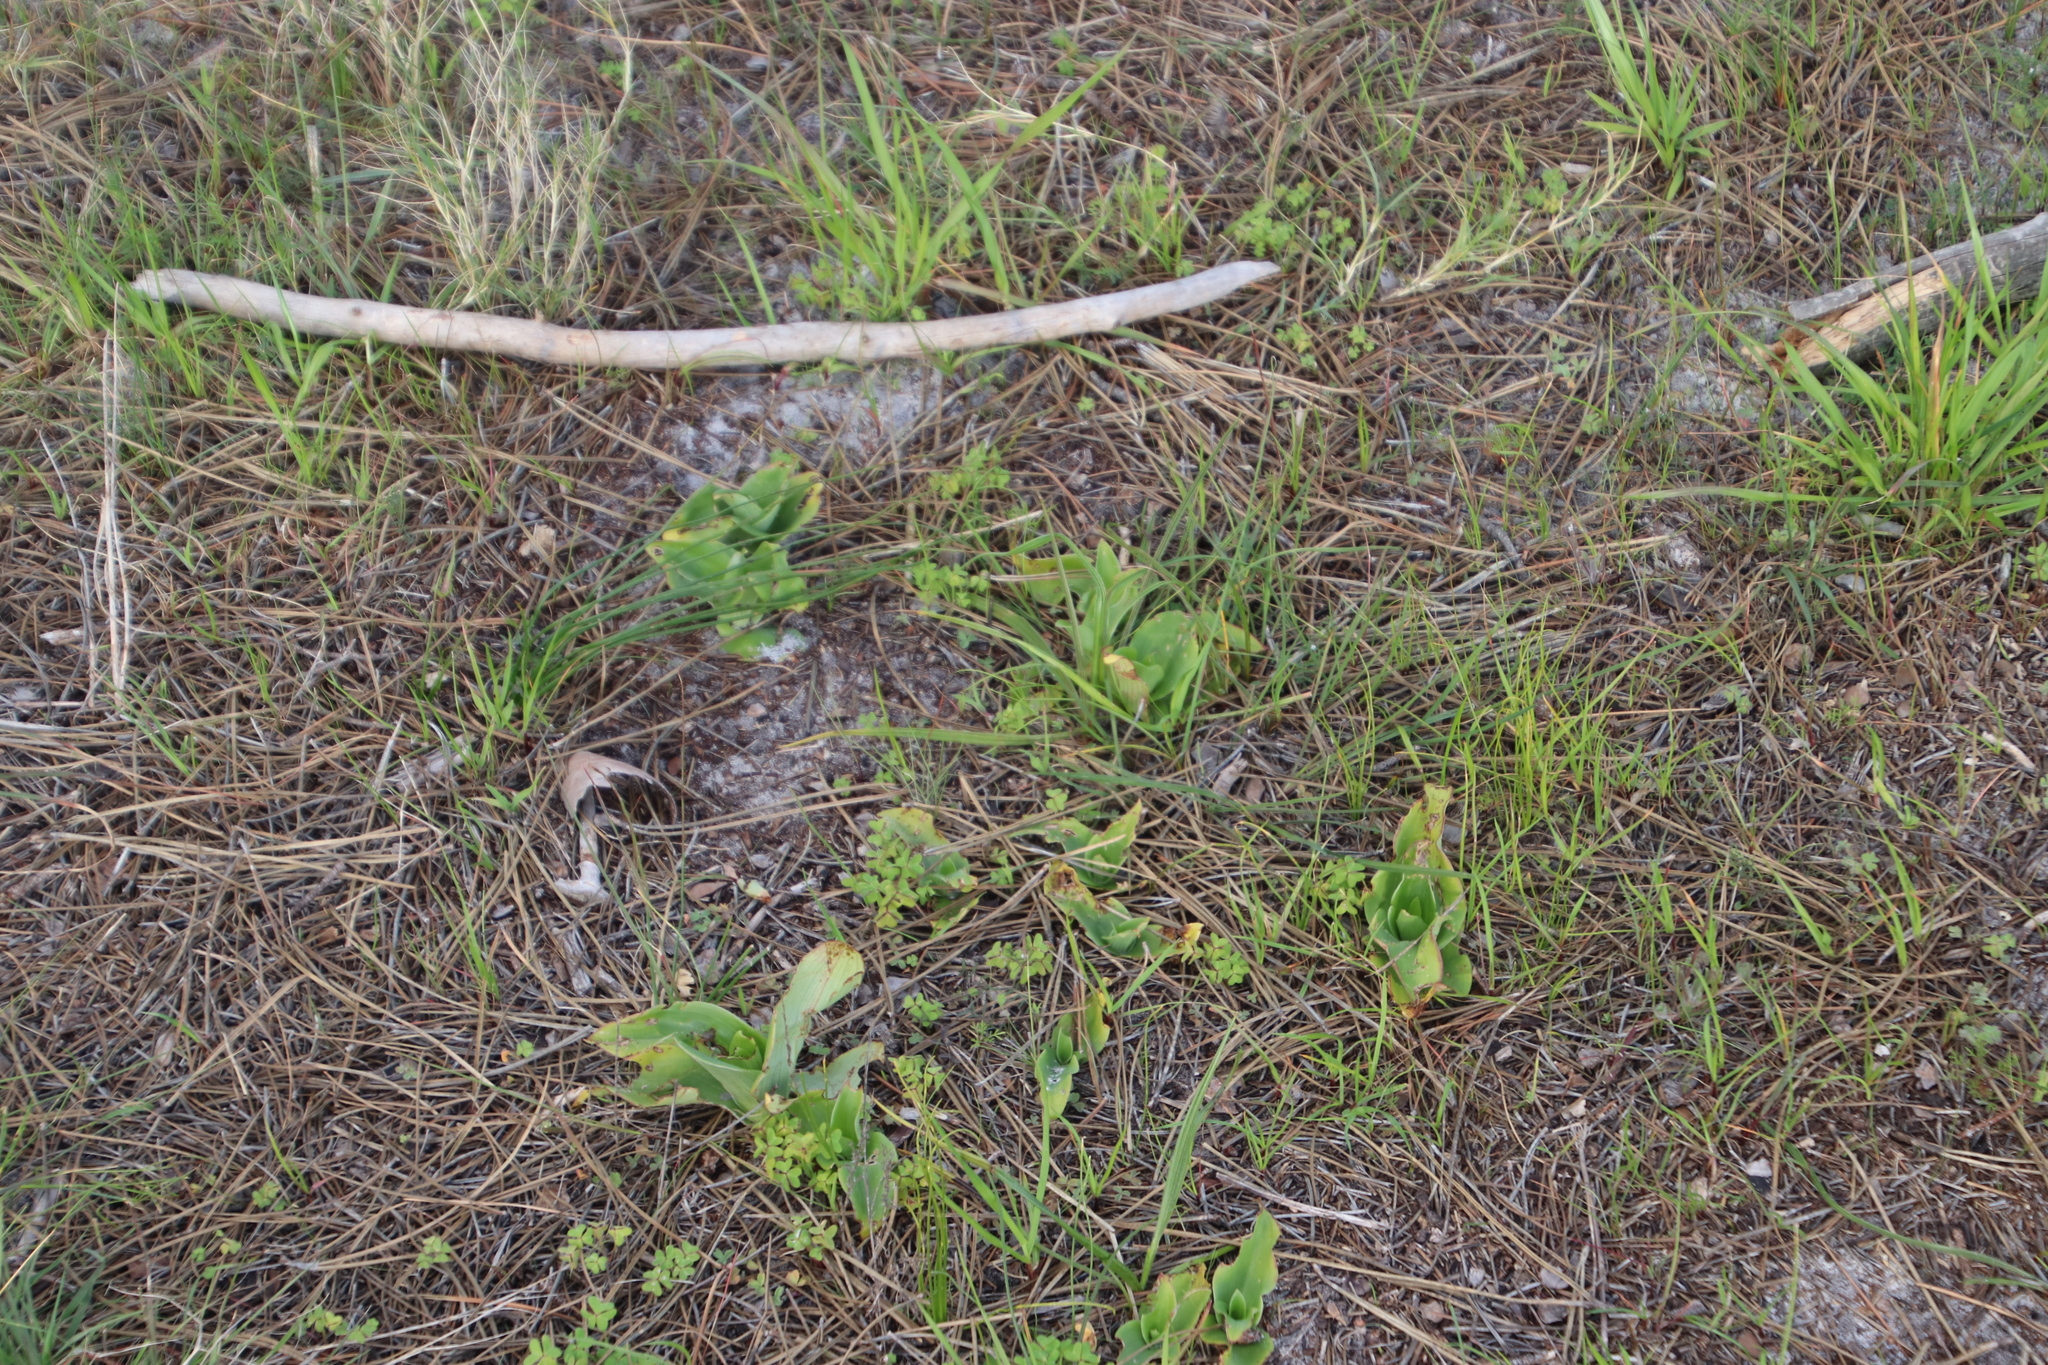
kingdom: Plantae
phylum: Tracheophyta
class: Liliopsida
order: Asparagales
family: Orchidaceae
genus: Satyrium
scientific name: Satyrium odorum
